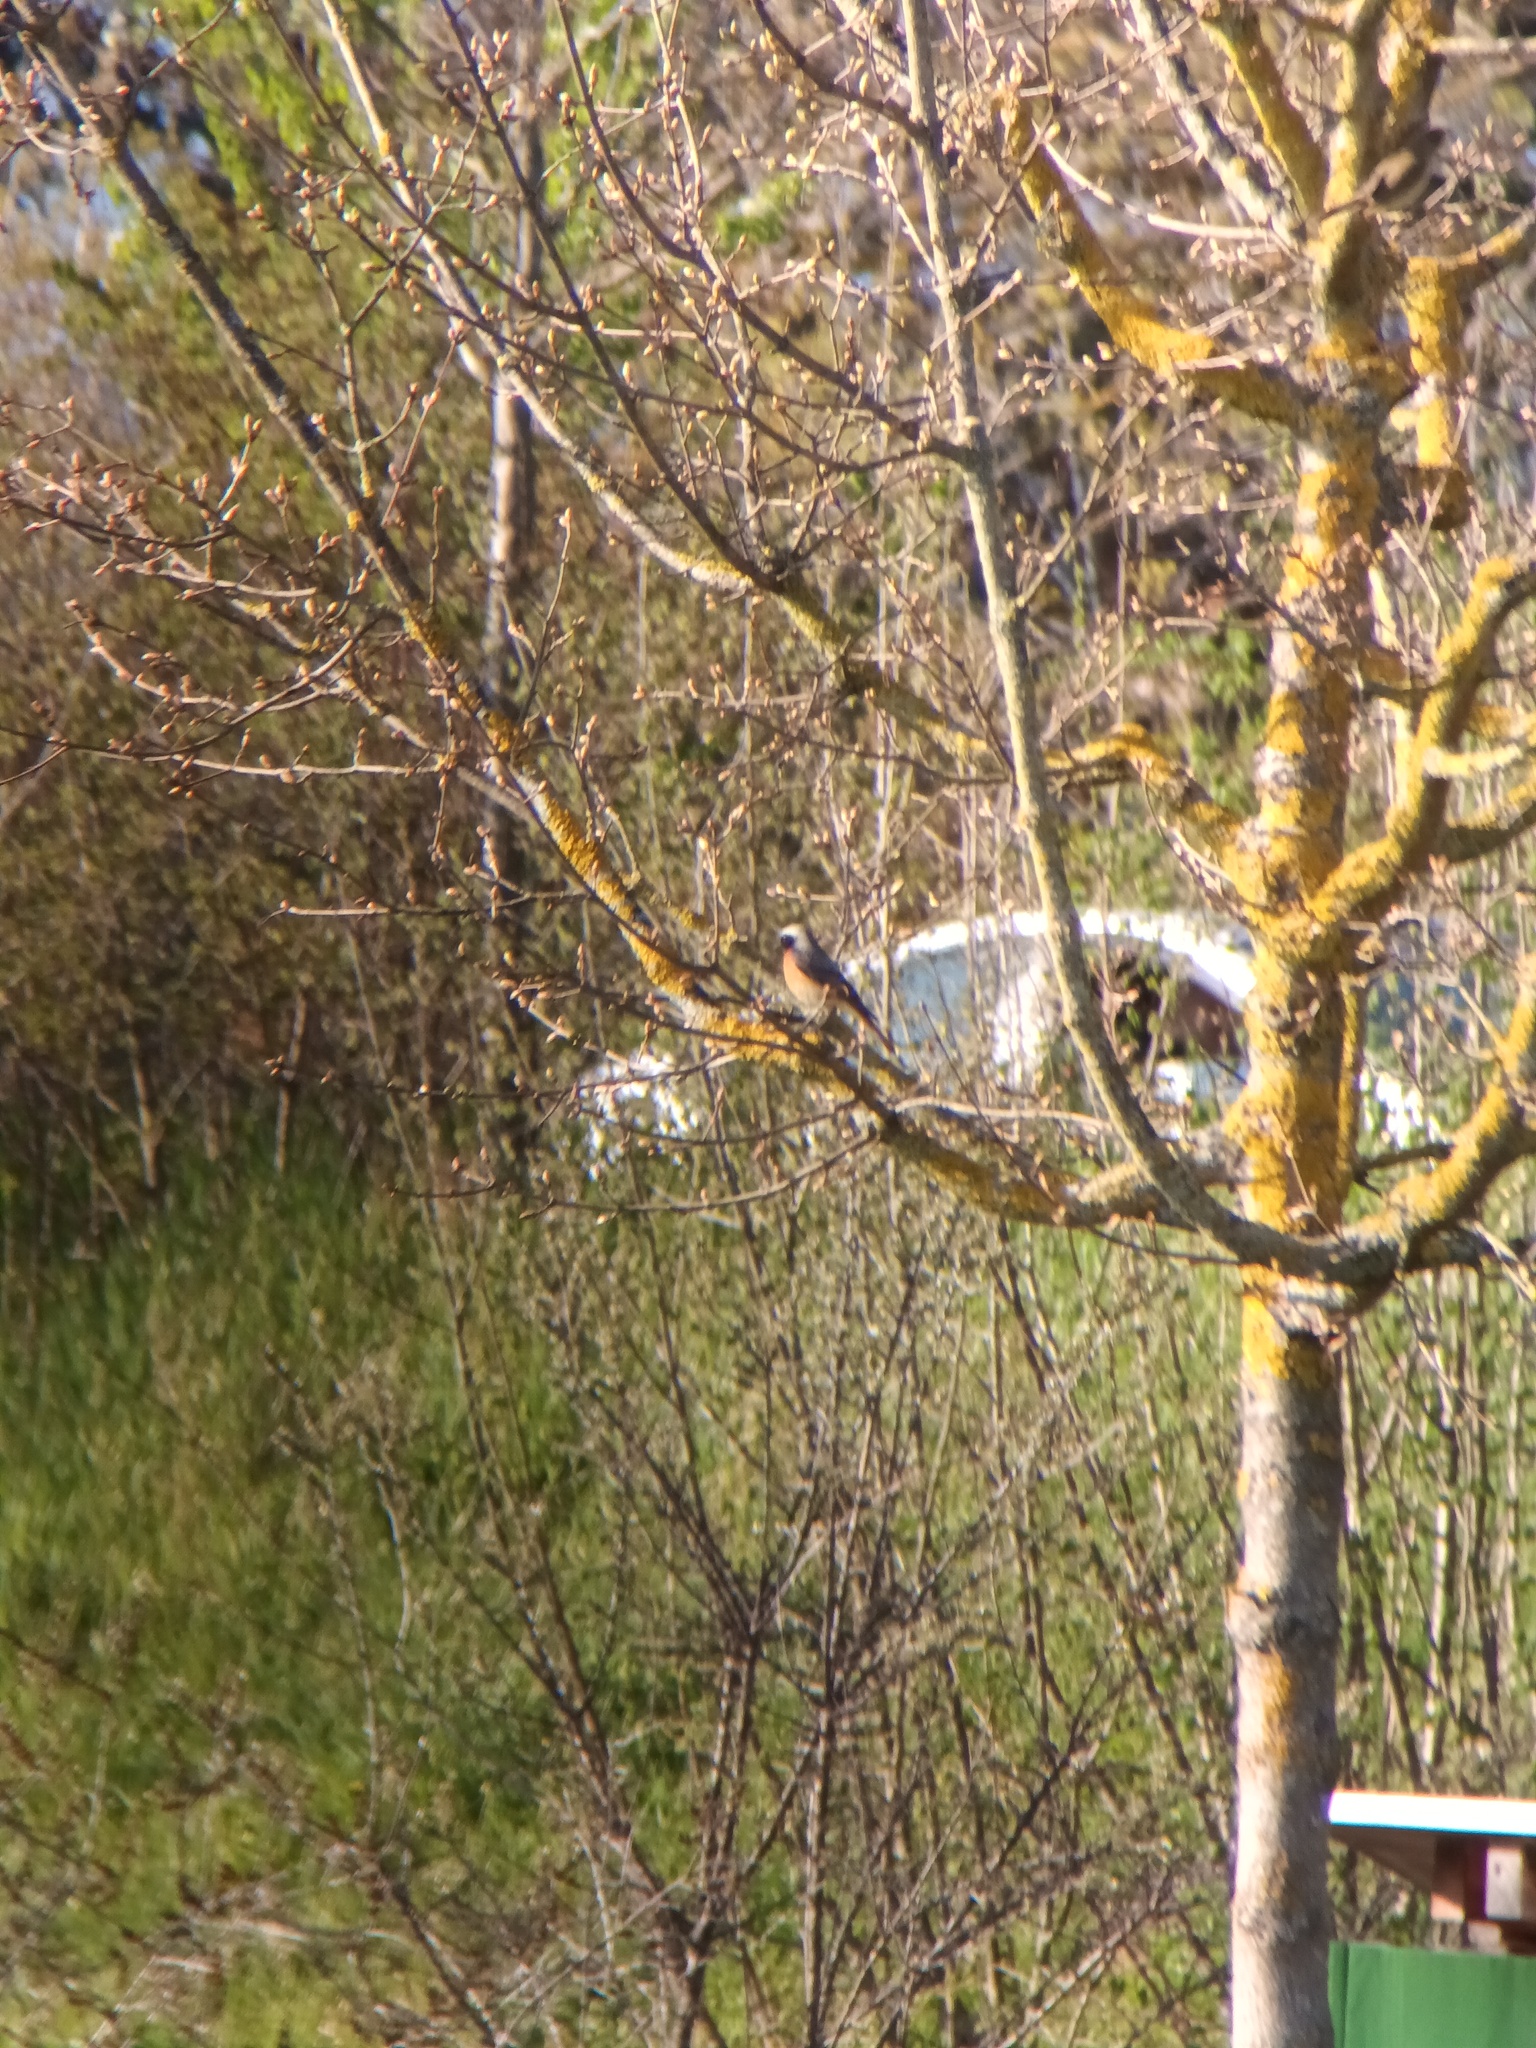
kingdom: Animalia
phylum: Chordata
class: Aves
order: Passeriformes
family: Muscicapidae
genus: Phoenicurus
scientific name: Phoenicurus phoenicurus
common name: Common redstart
